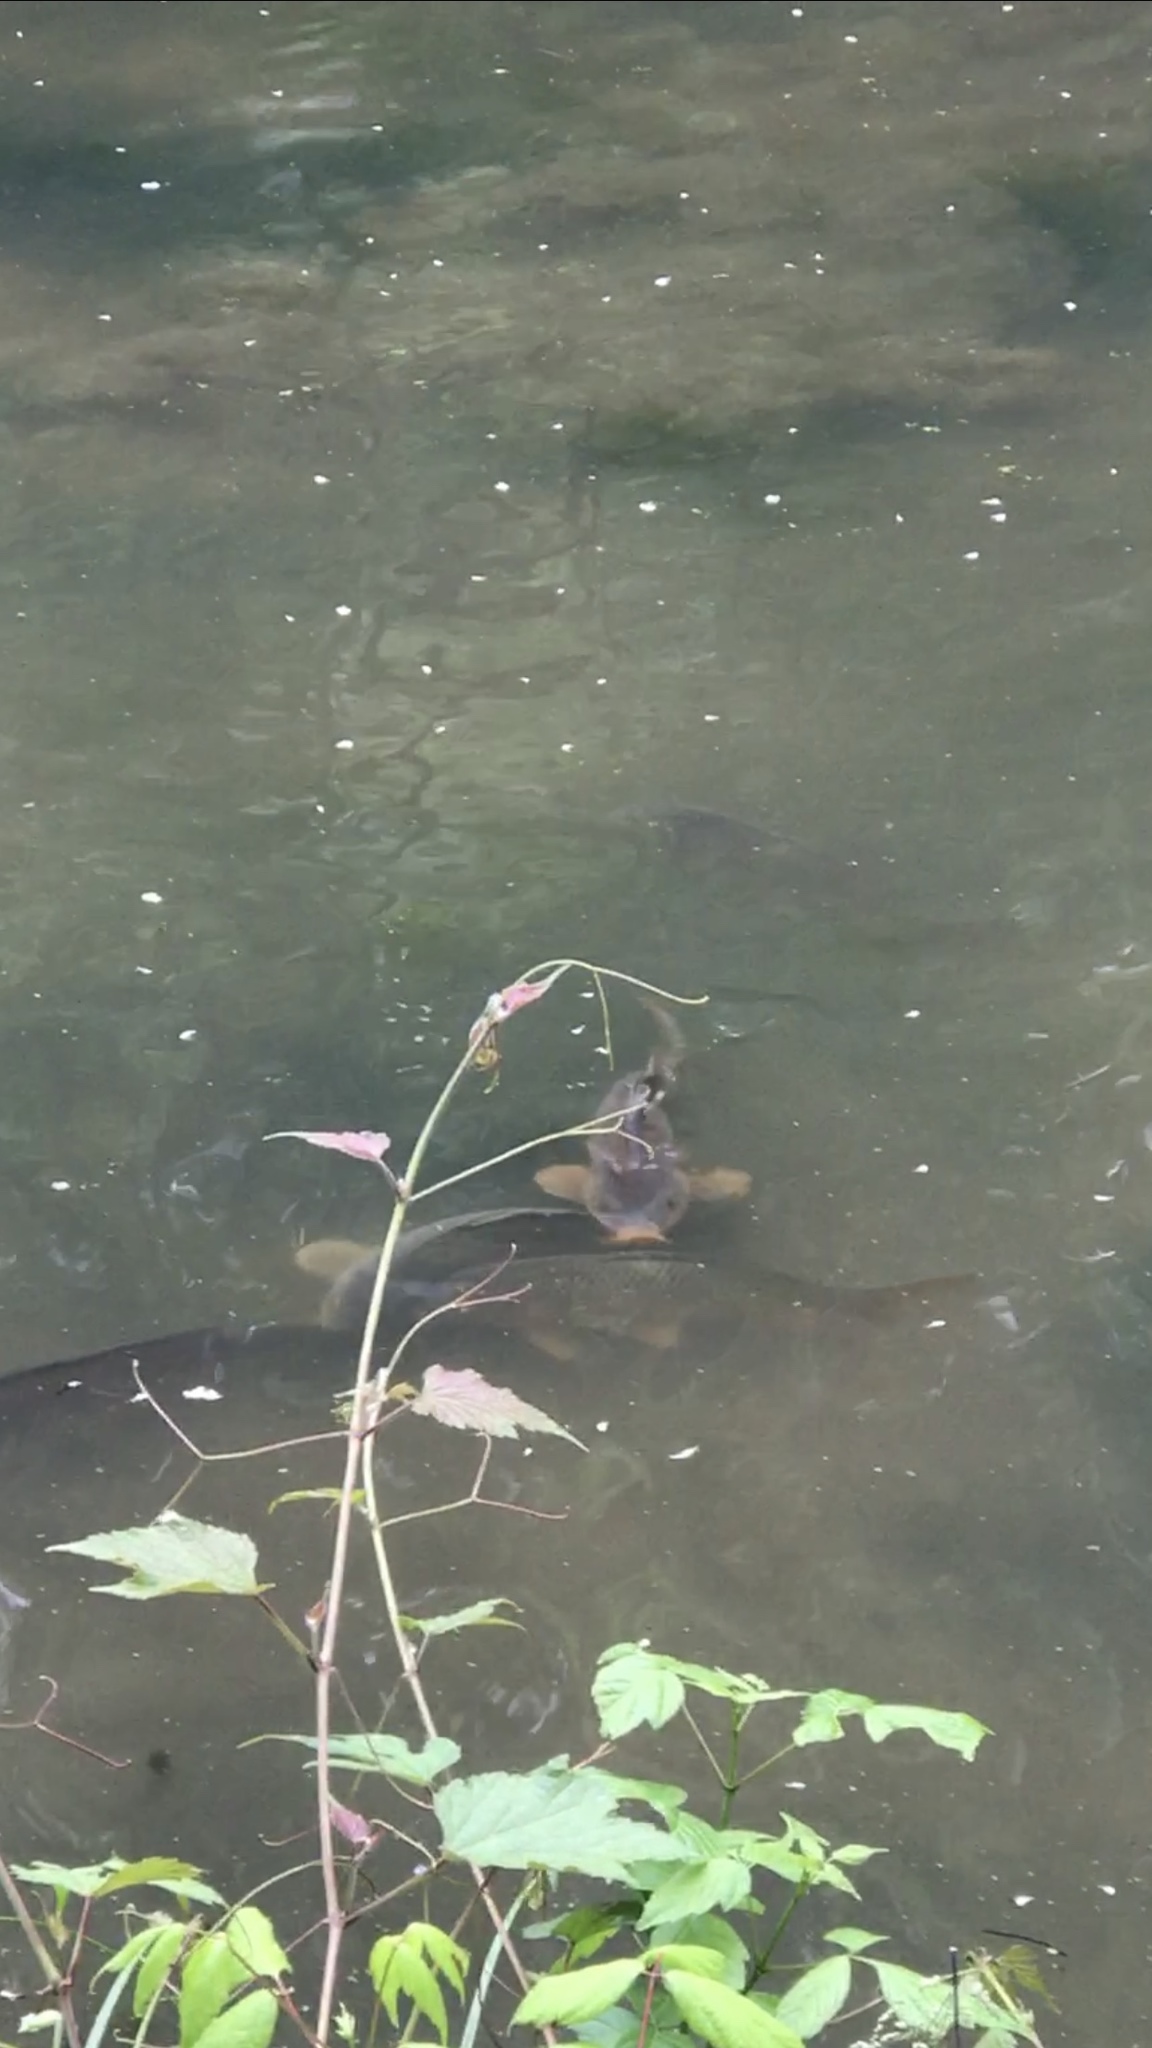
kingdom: Animalia
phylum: Chordata
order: Cypriniformes
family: Cyprinidae
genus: Cyprinus
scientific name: Cyprinus carpio
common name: Common carp
